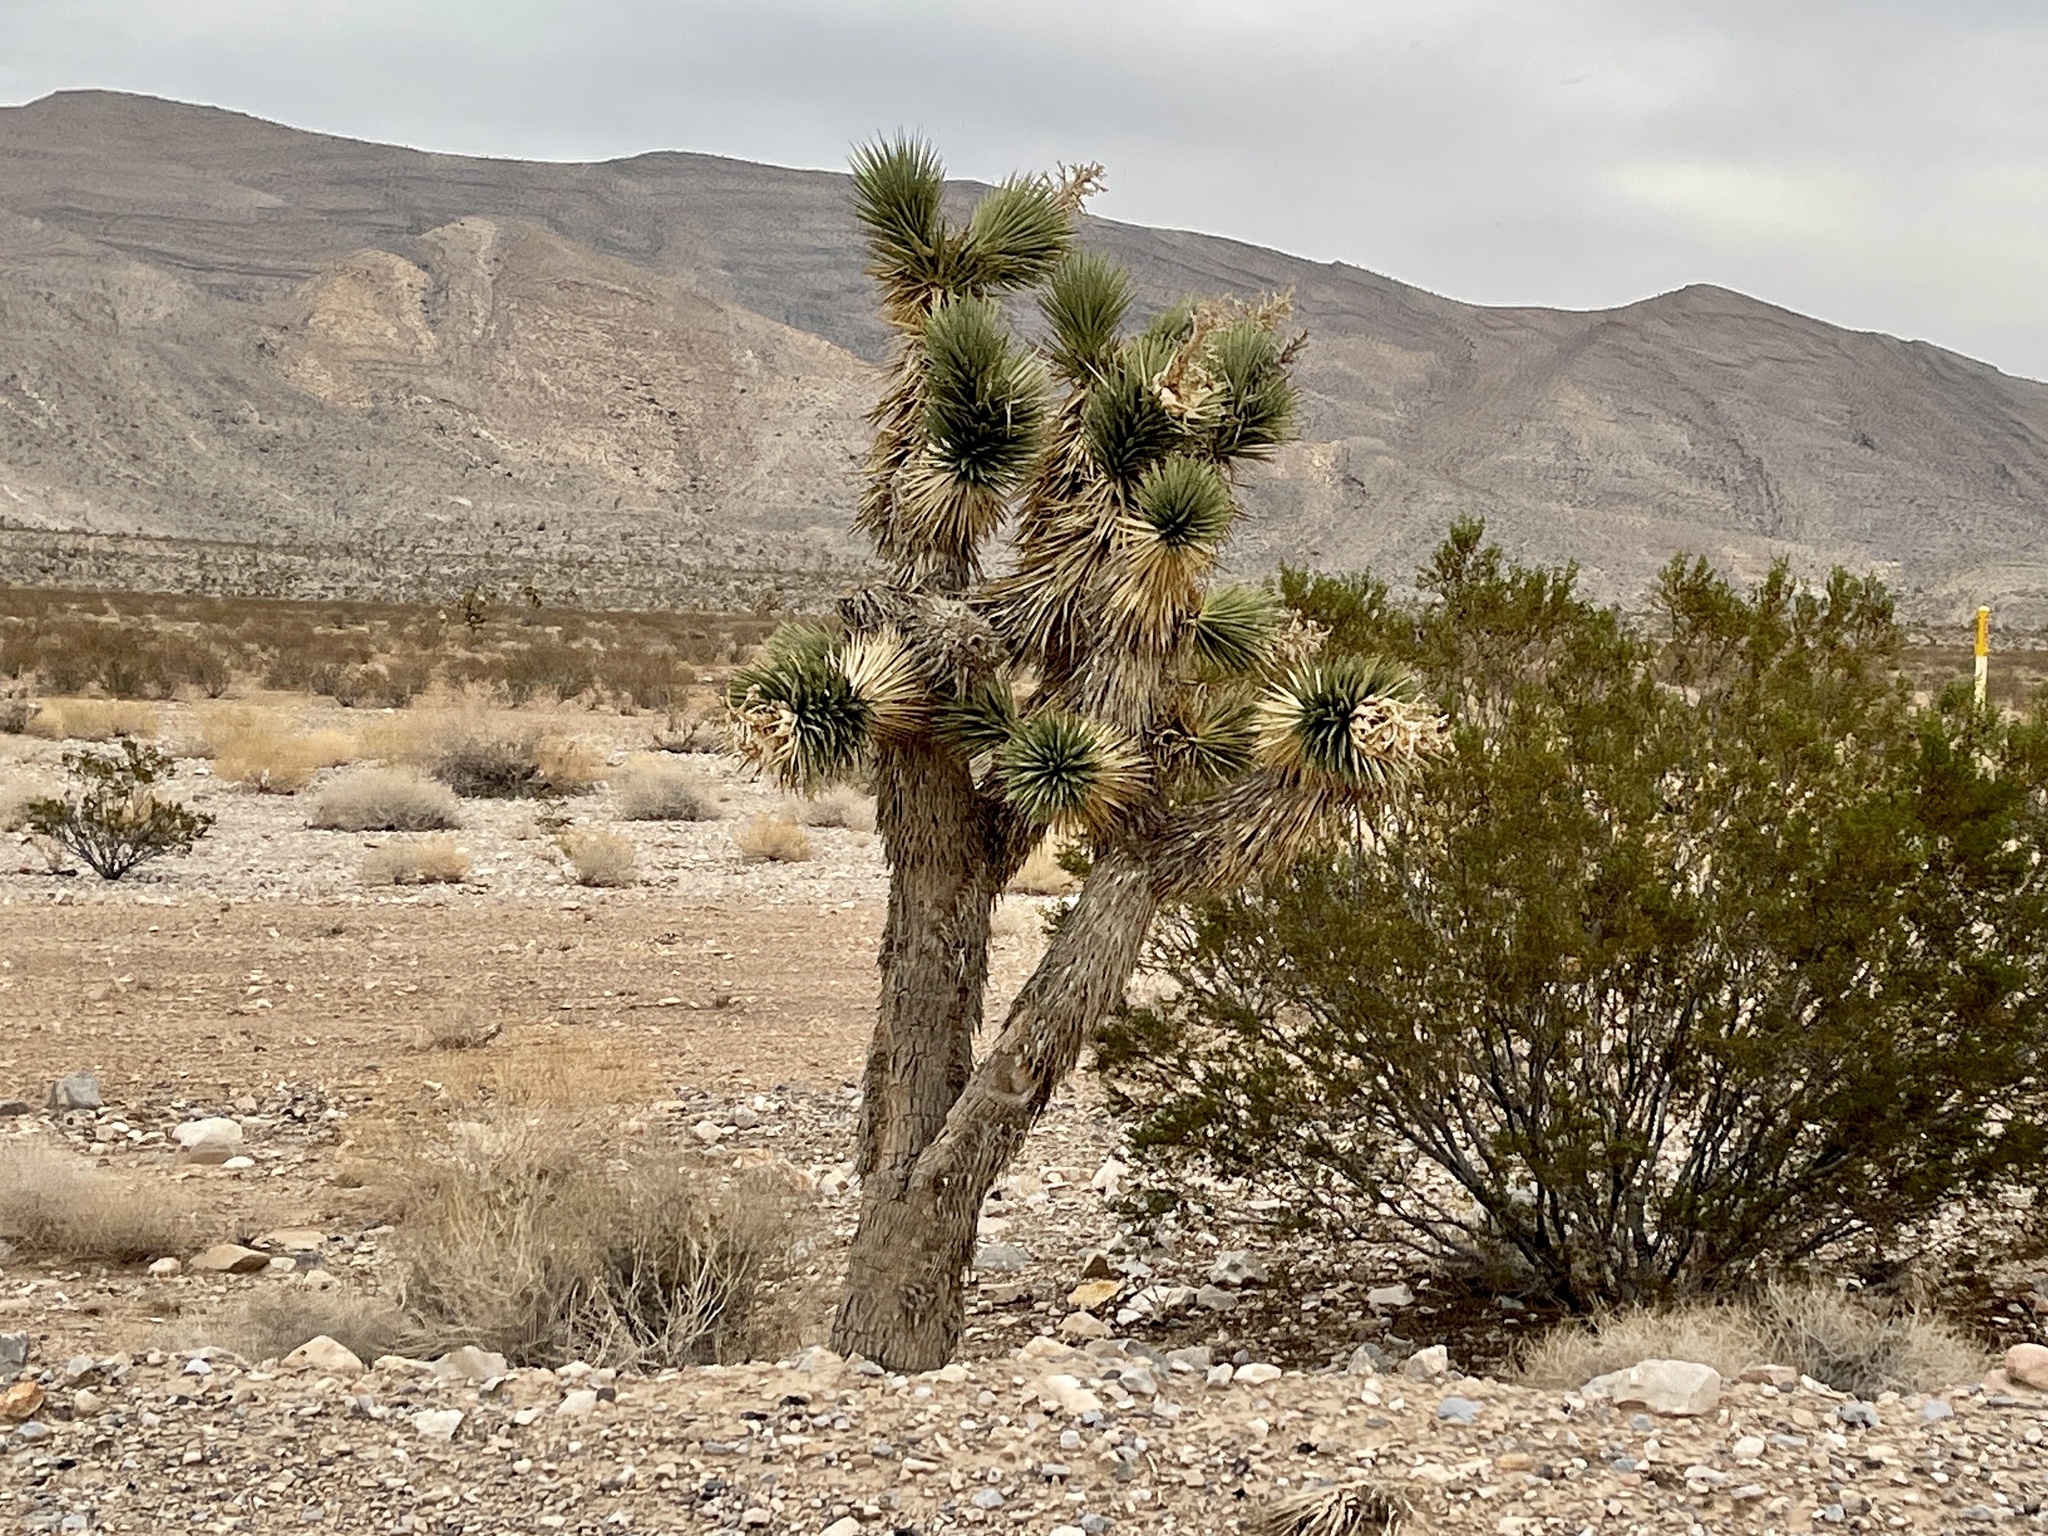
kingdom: Plantae
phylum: Tracheophyta
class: Liliopsida
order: Asparagales
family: Asparagaceae
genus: Yucca
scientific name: Yucca brevifolia
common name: Joshua tree
